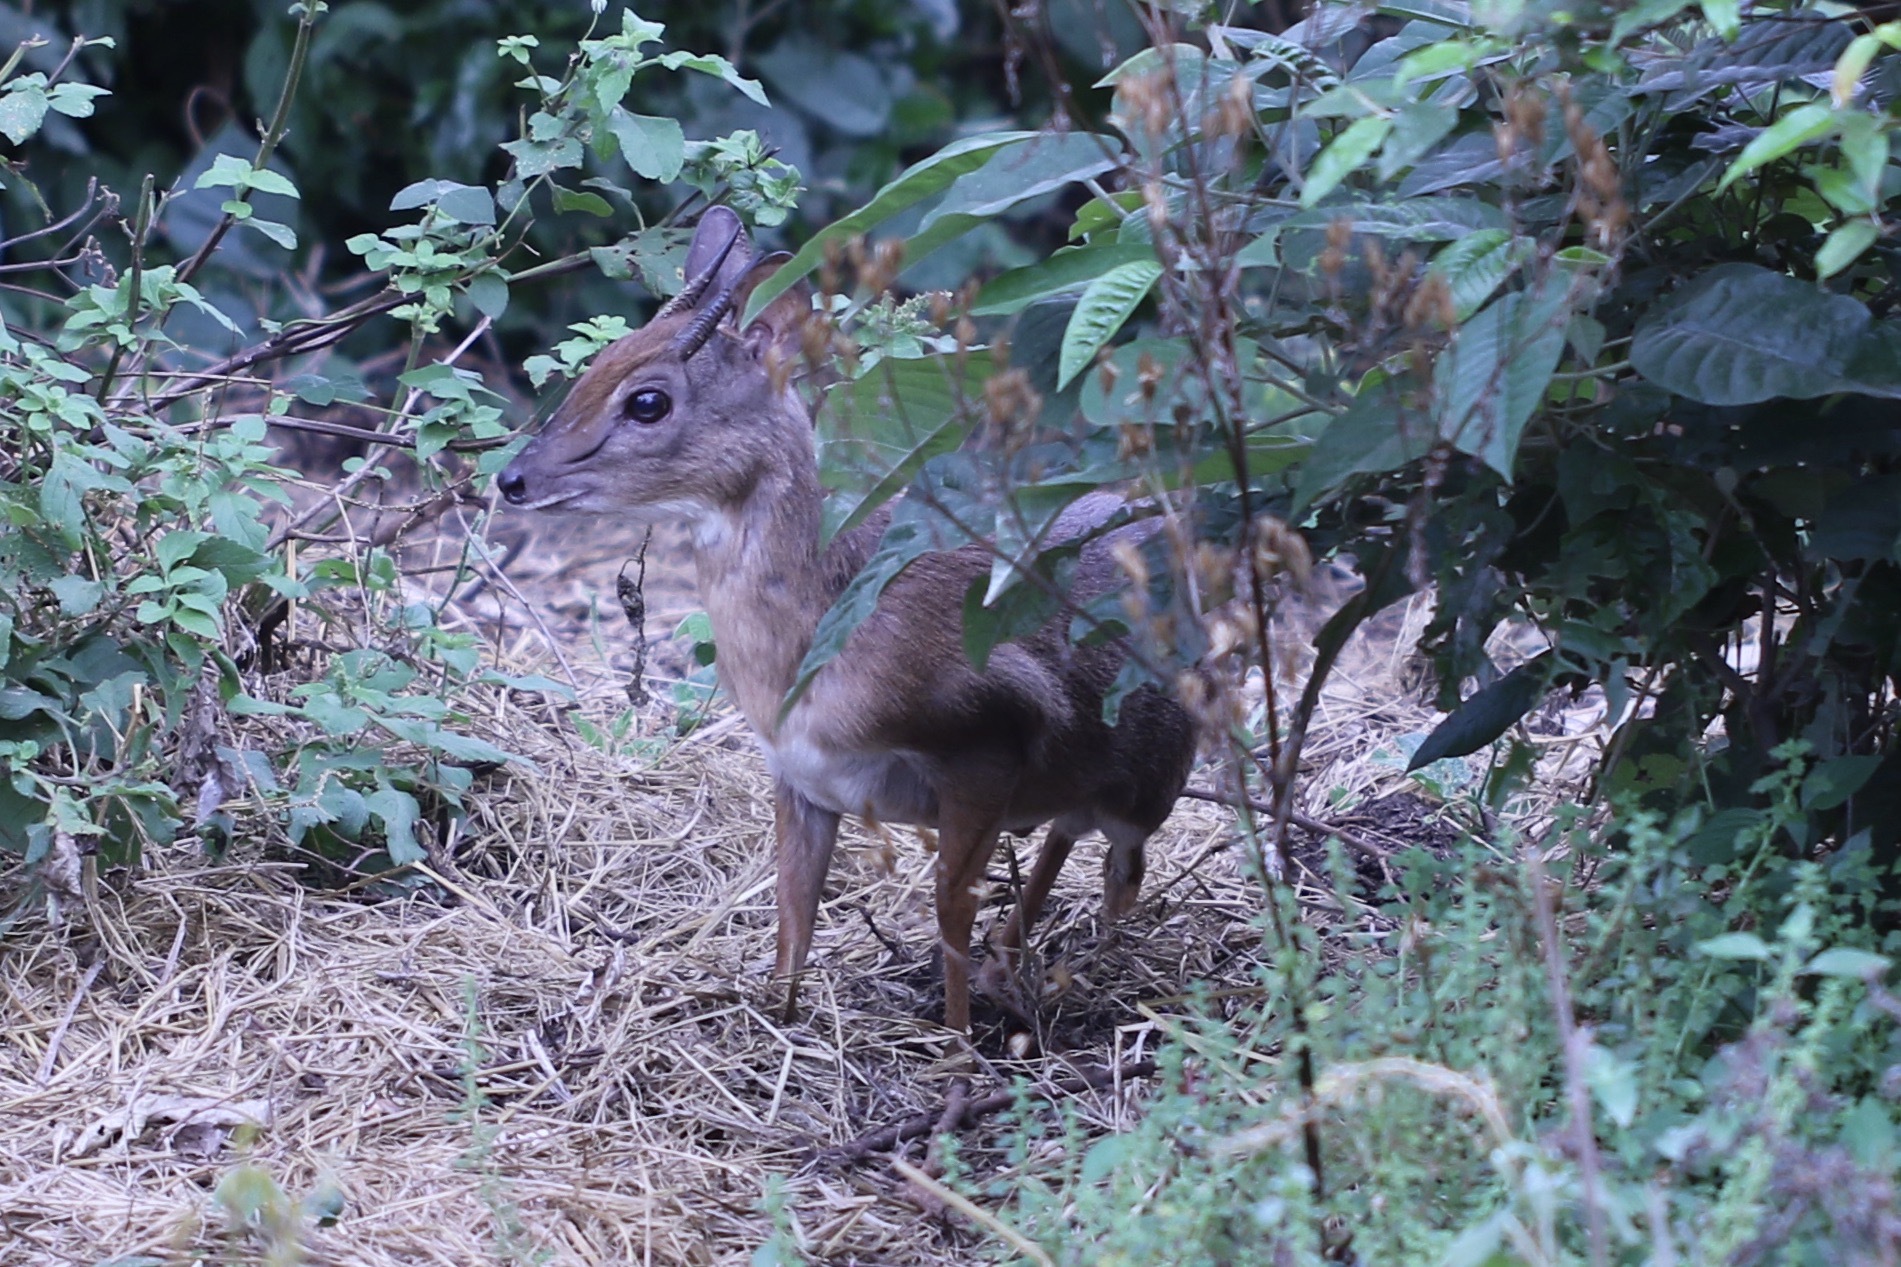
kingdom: Animalia
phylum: Chordata
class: Mammalia
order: Artiodactyla
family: Bovidae
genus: Neotragus
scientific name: Neotragus moschatus
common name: Suni
